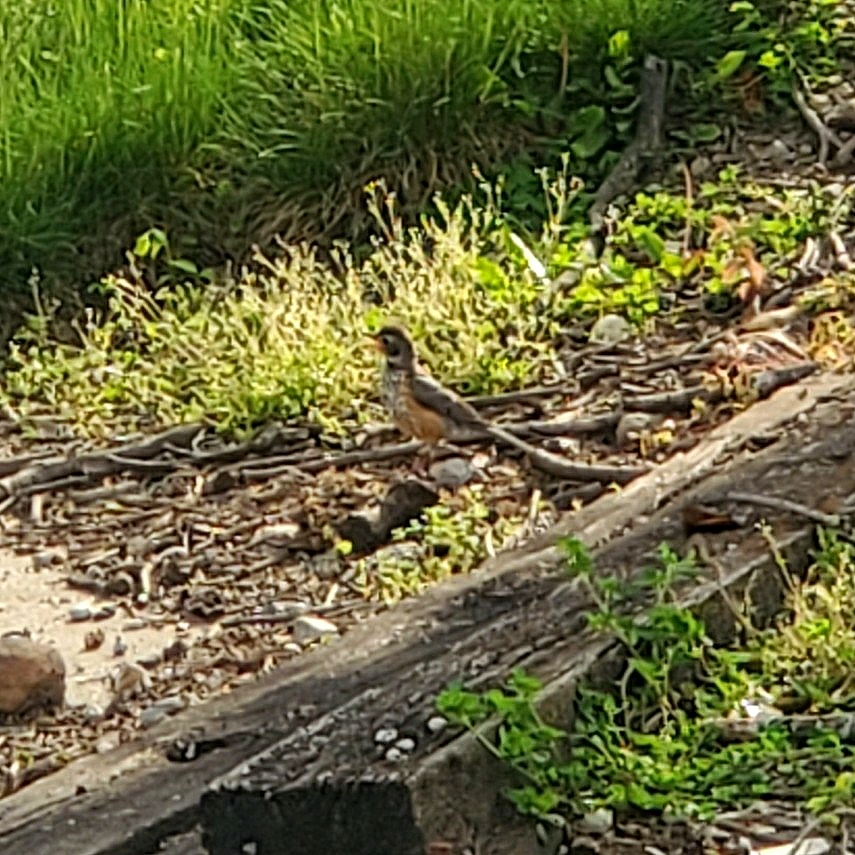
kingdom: Animalia
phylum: Chordata
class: Aves
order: Passeriformes
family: Turdidae
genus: Turdus
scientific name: Turdus migratorius
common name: American robin
